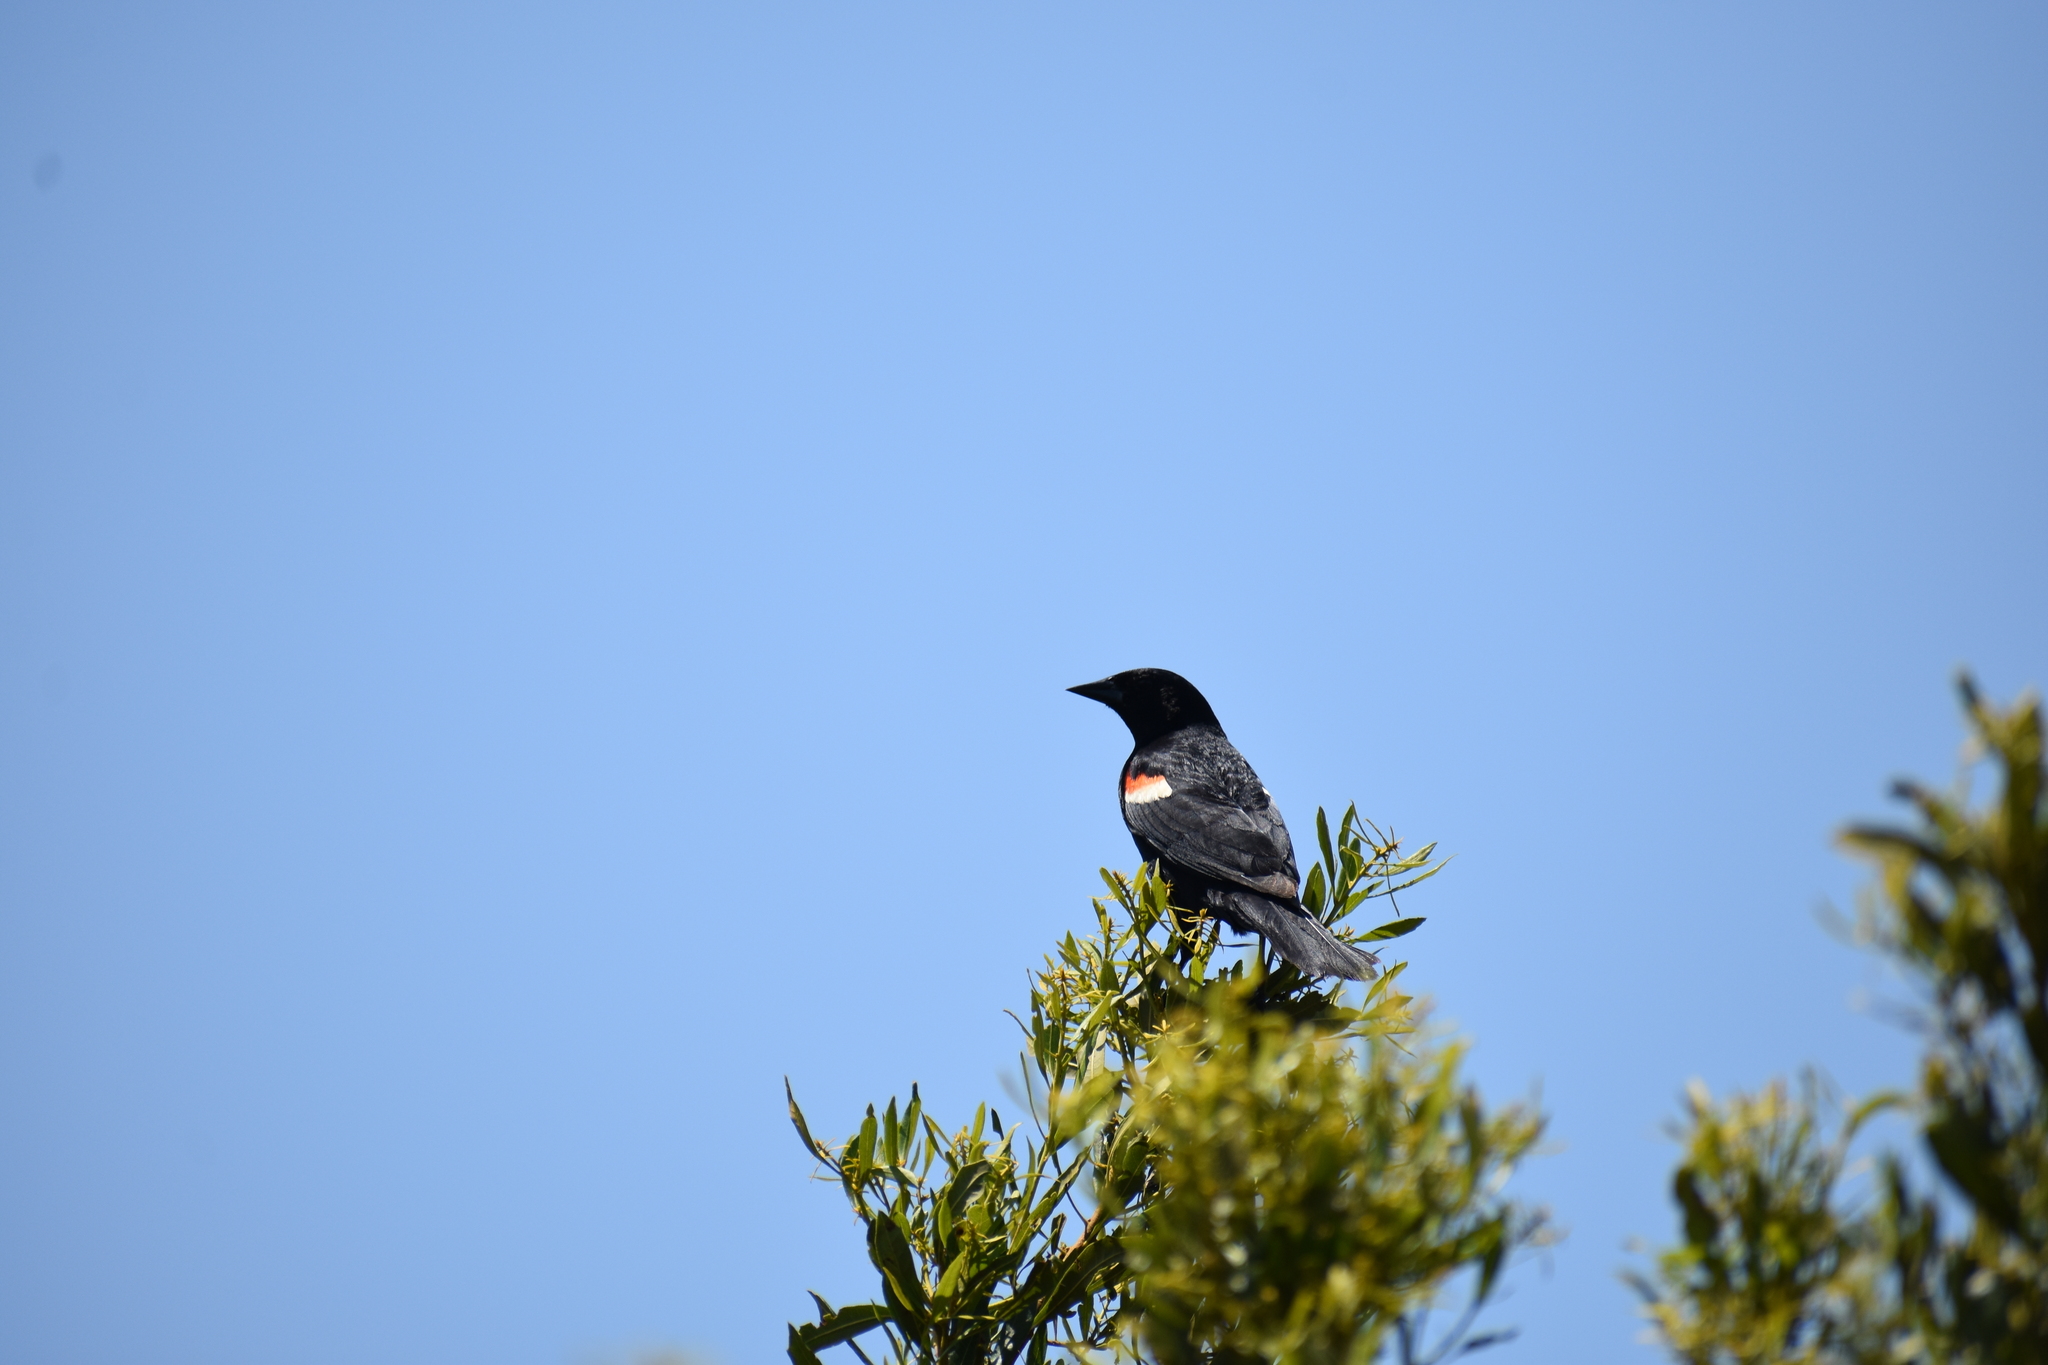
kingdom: Animalia
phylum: Chordata
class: Aves
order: Passeriformes
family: Icteridae
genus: Agelaius
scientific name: Agelaius phoeniceus
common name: Red-winged blackbird
